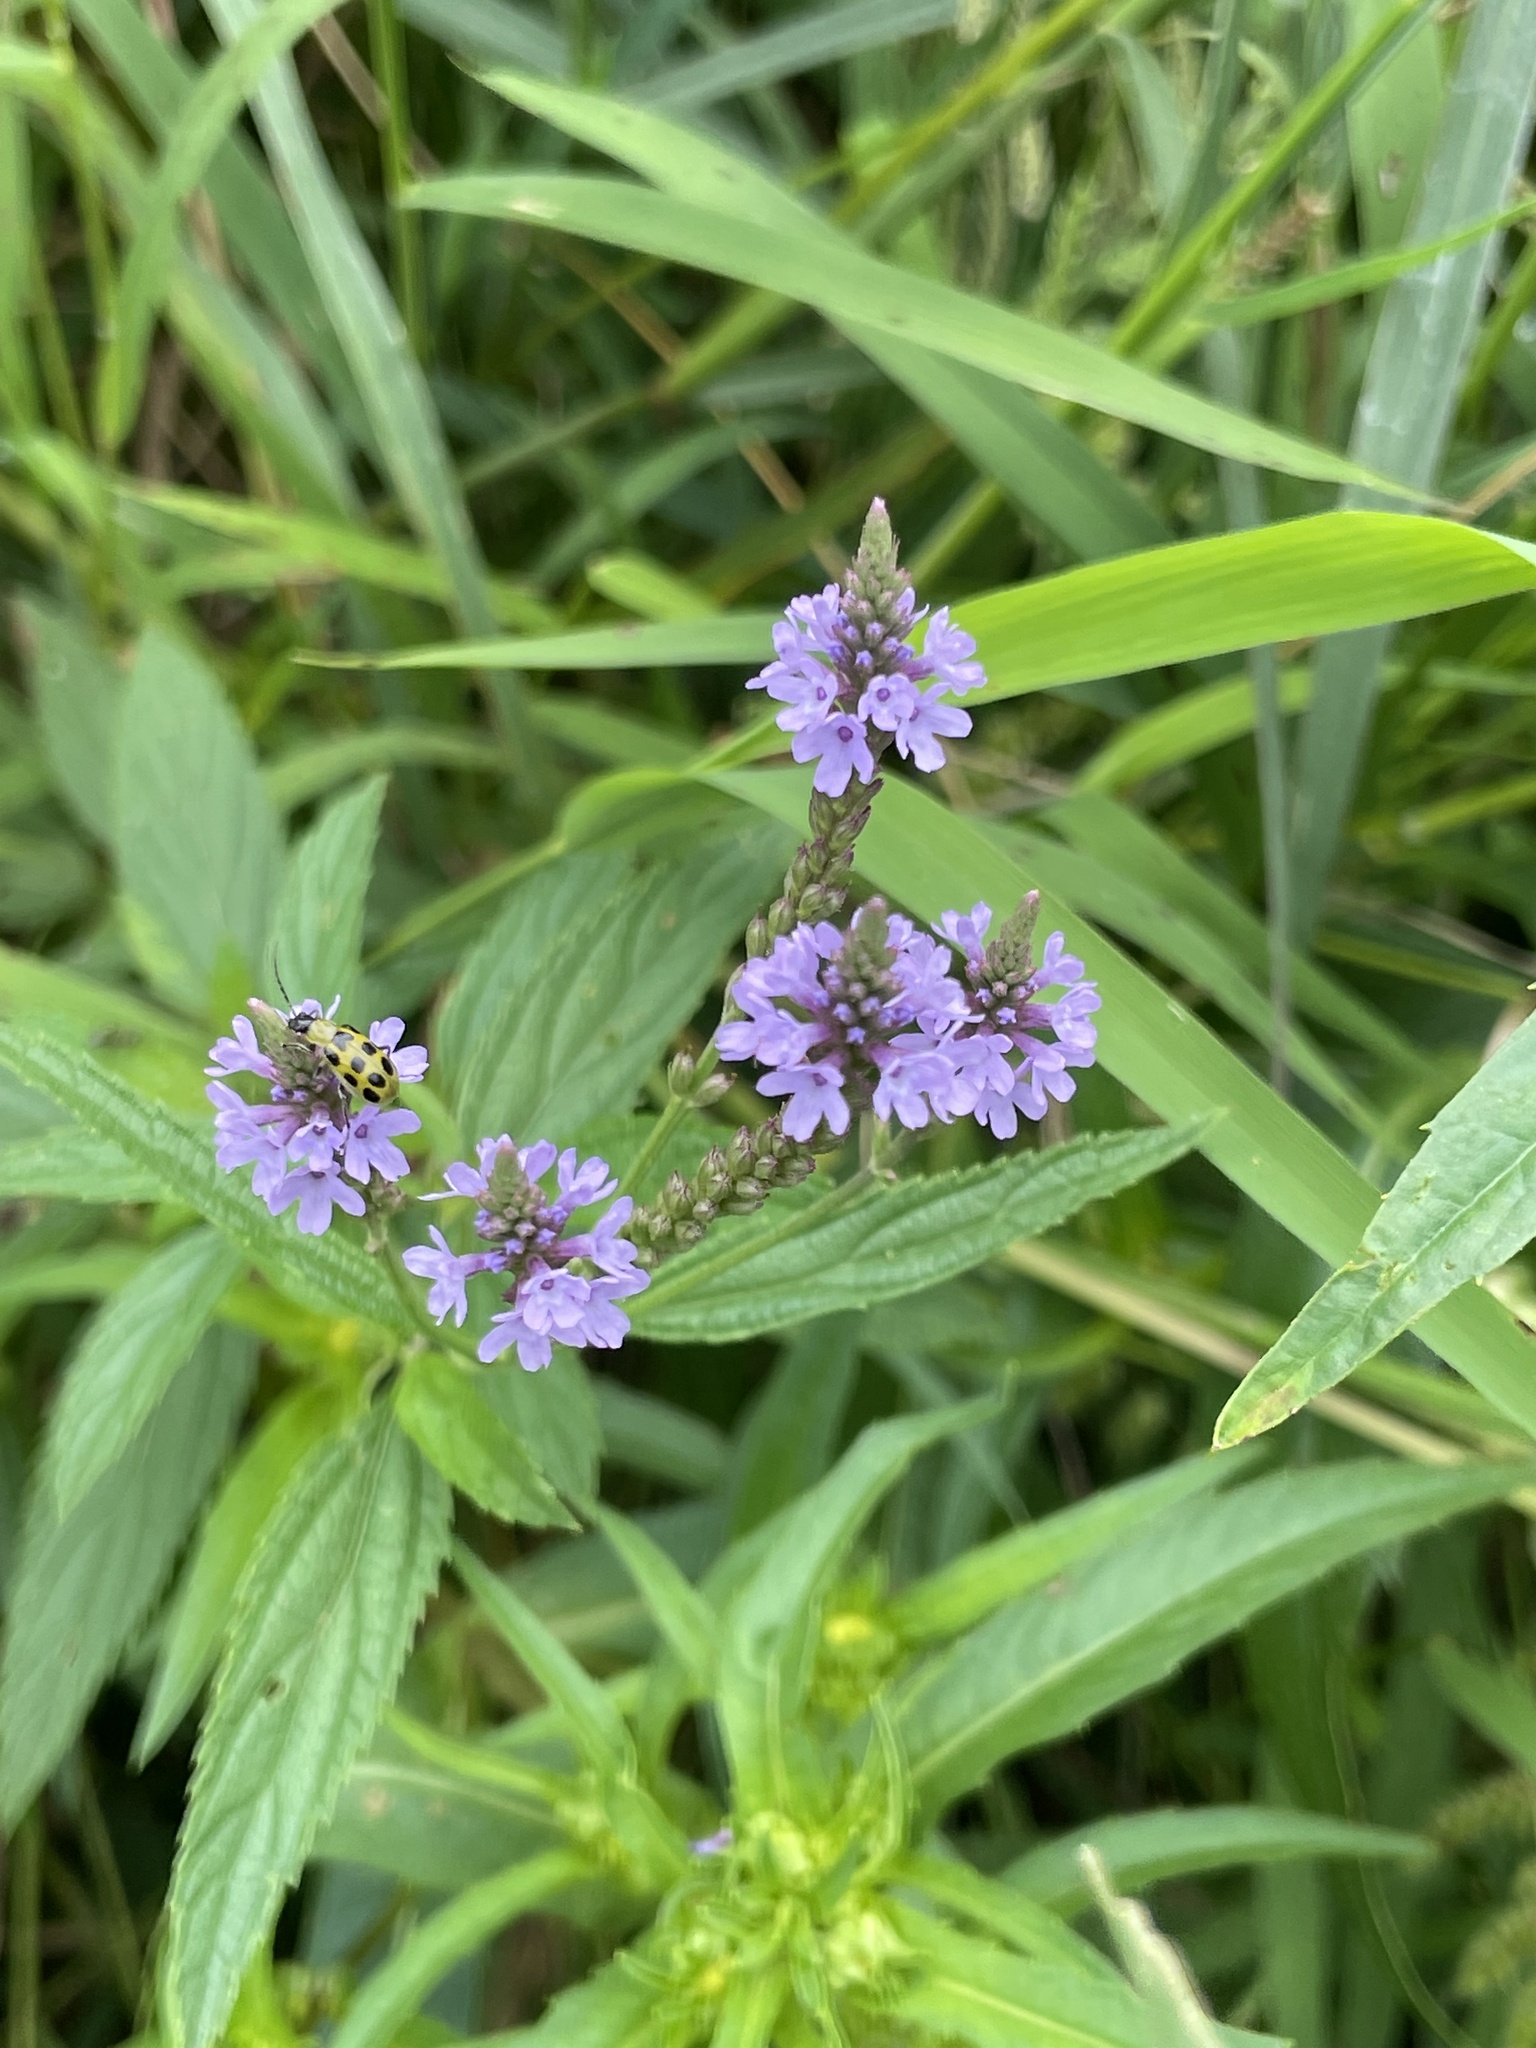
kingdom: Plantae
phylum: Tracheophyta
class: Magnoliopsida
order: Lamiales
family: Verbenaceae
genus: Verbena
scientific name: Verbena hastata
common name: American blue vervain
